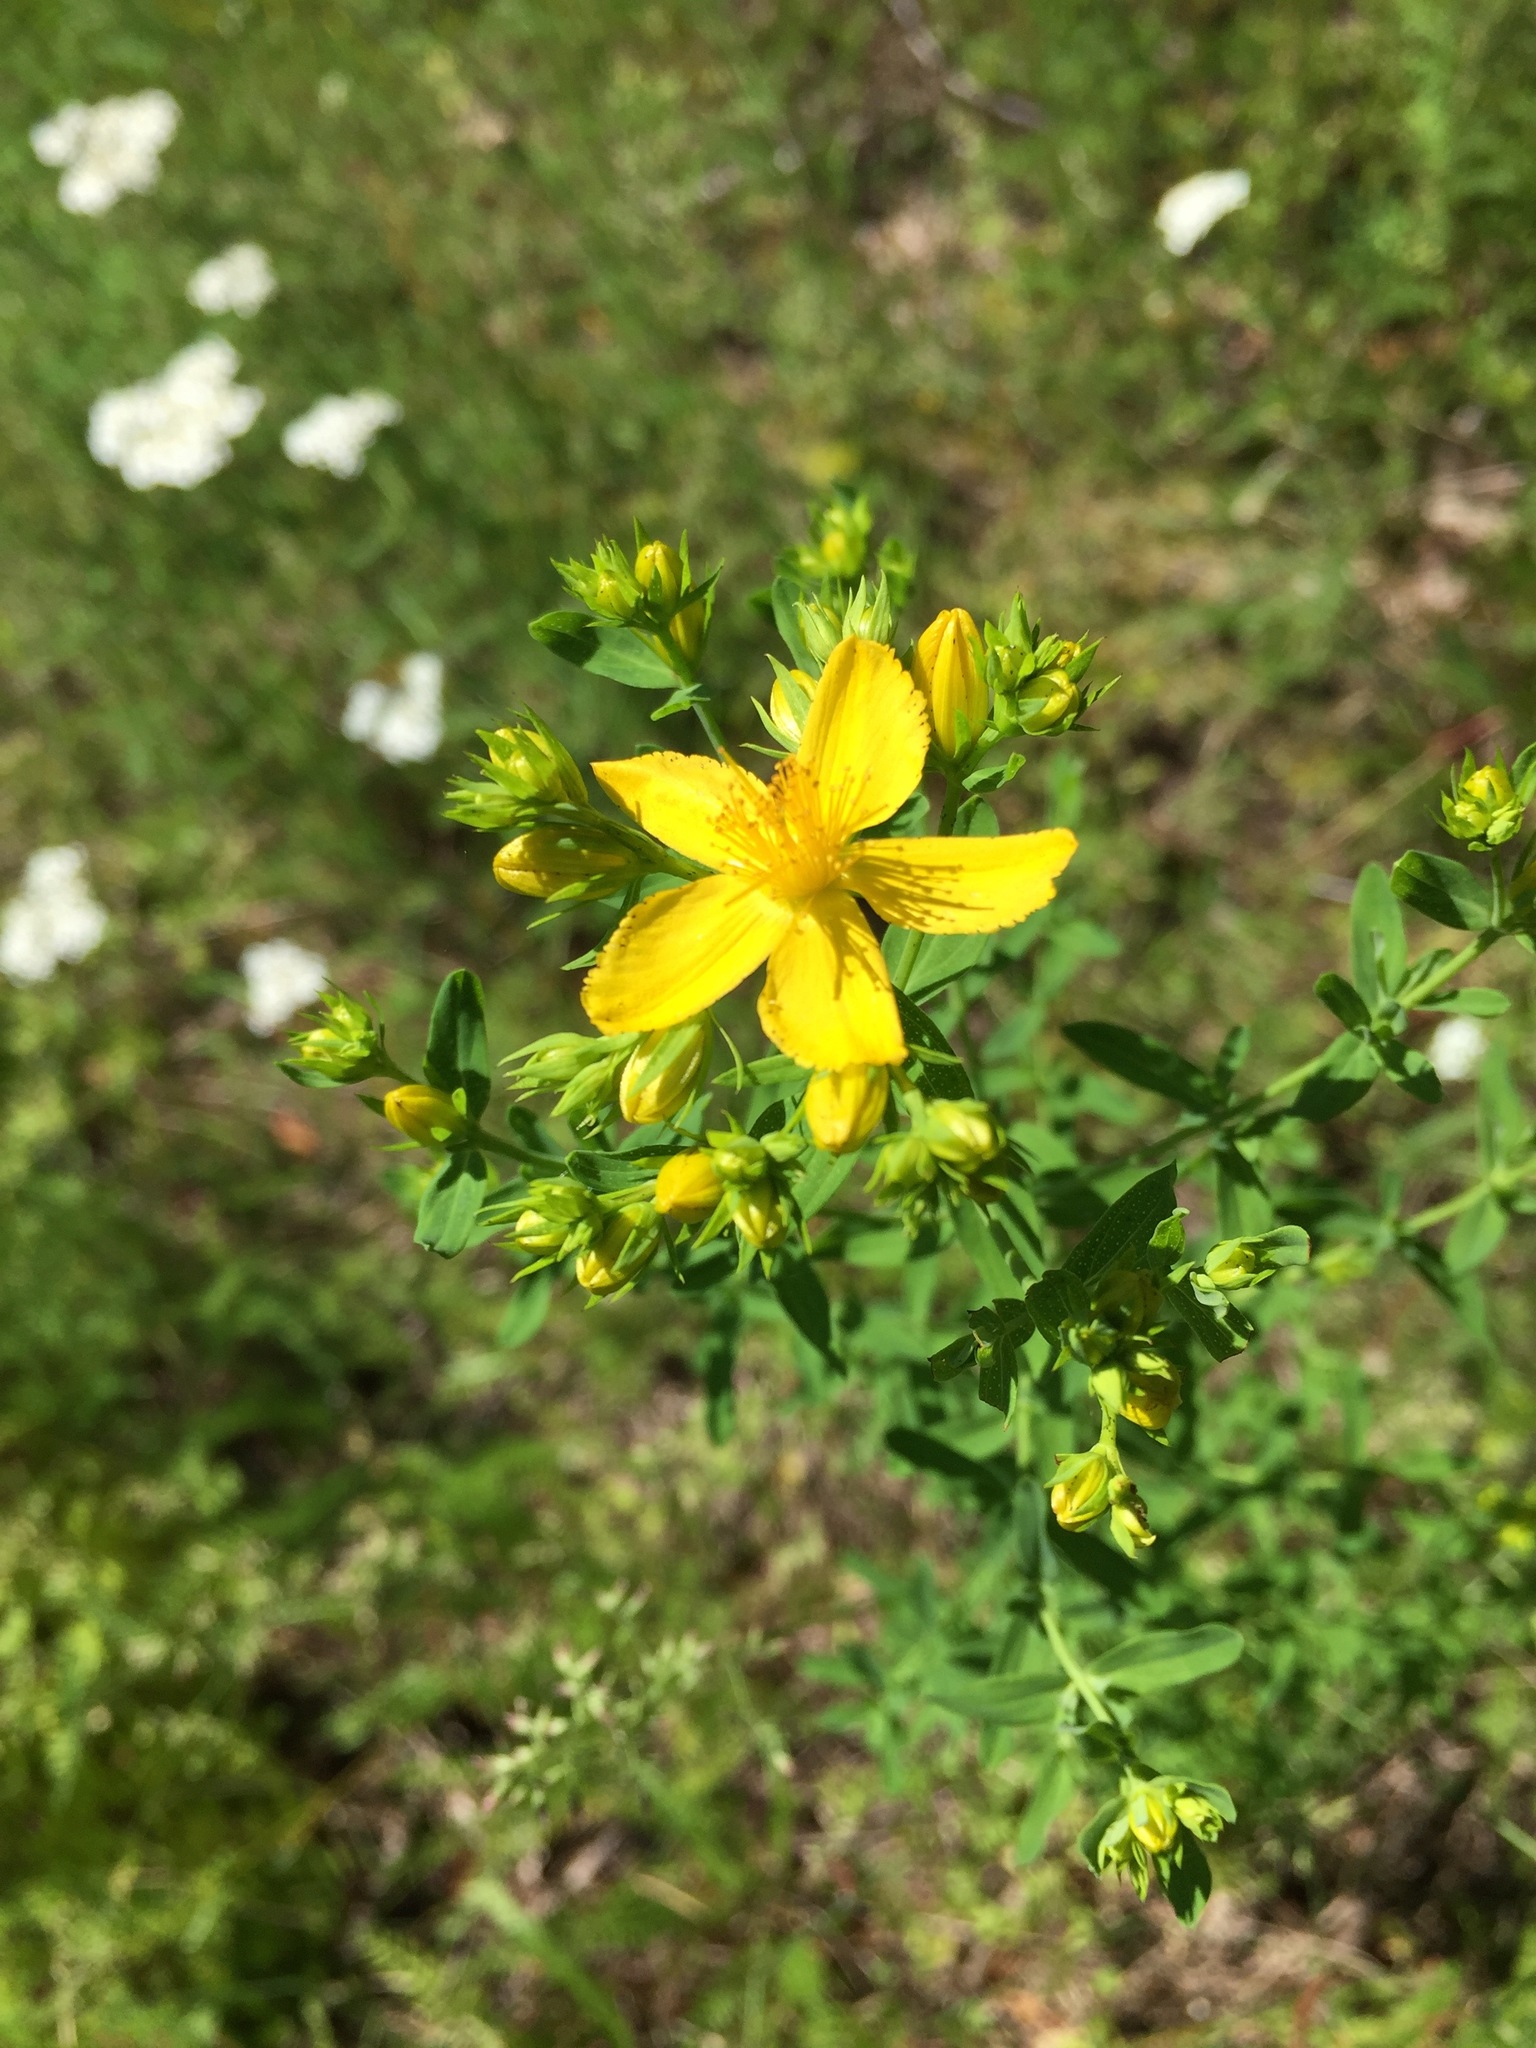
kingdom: Plantae
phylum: Tracheophyta
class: Magnoliopsida
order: Malpighiales
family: Hypericaceae
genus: Hypericum
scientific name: Hypericum perforatum
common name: Common st. johnswort
